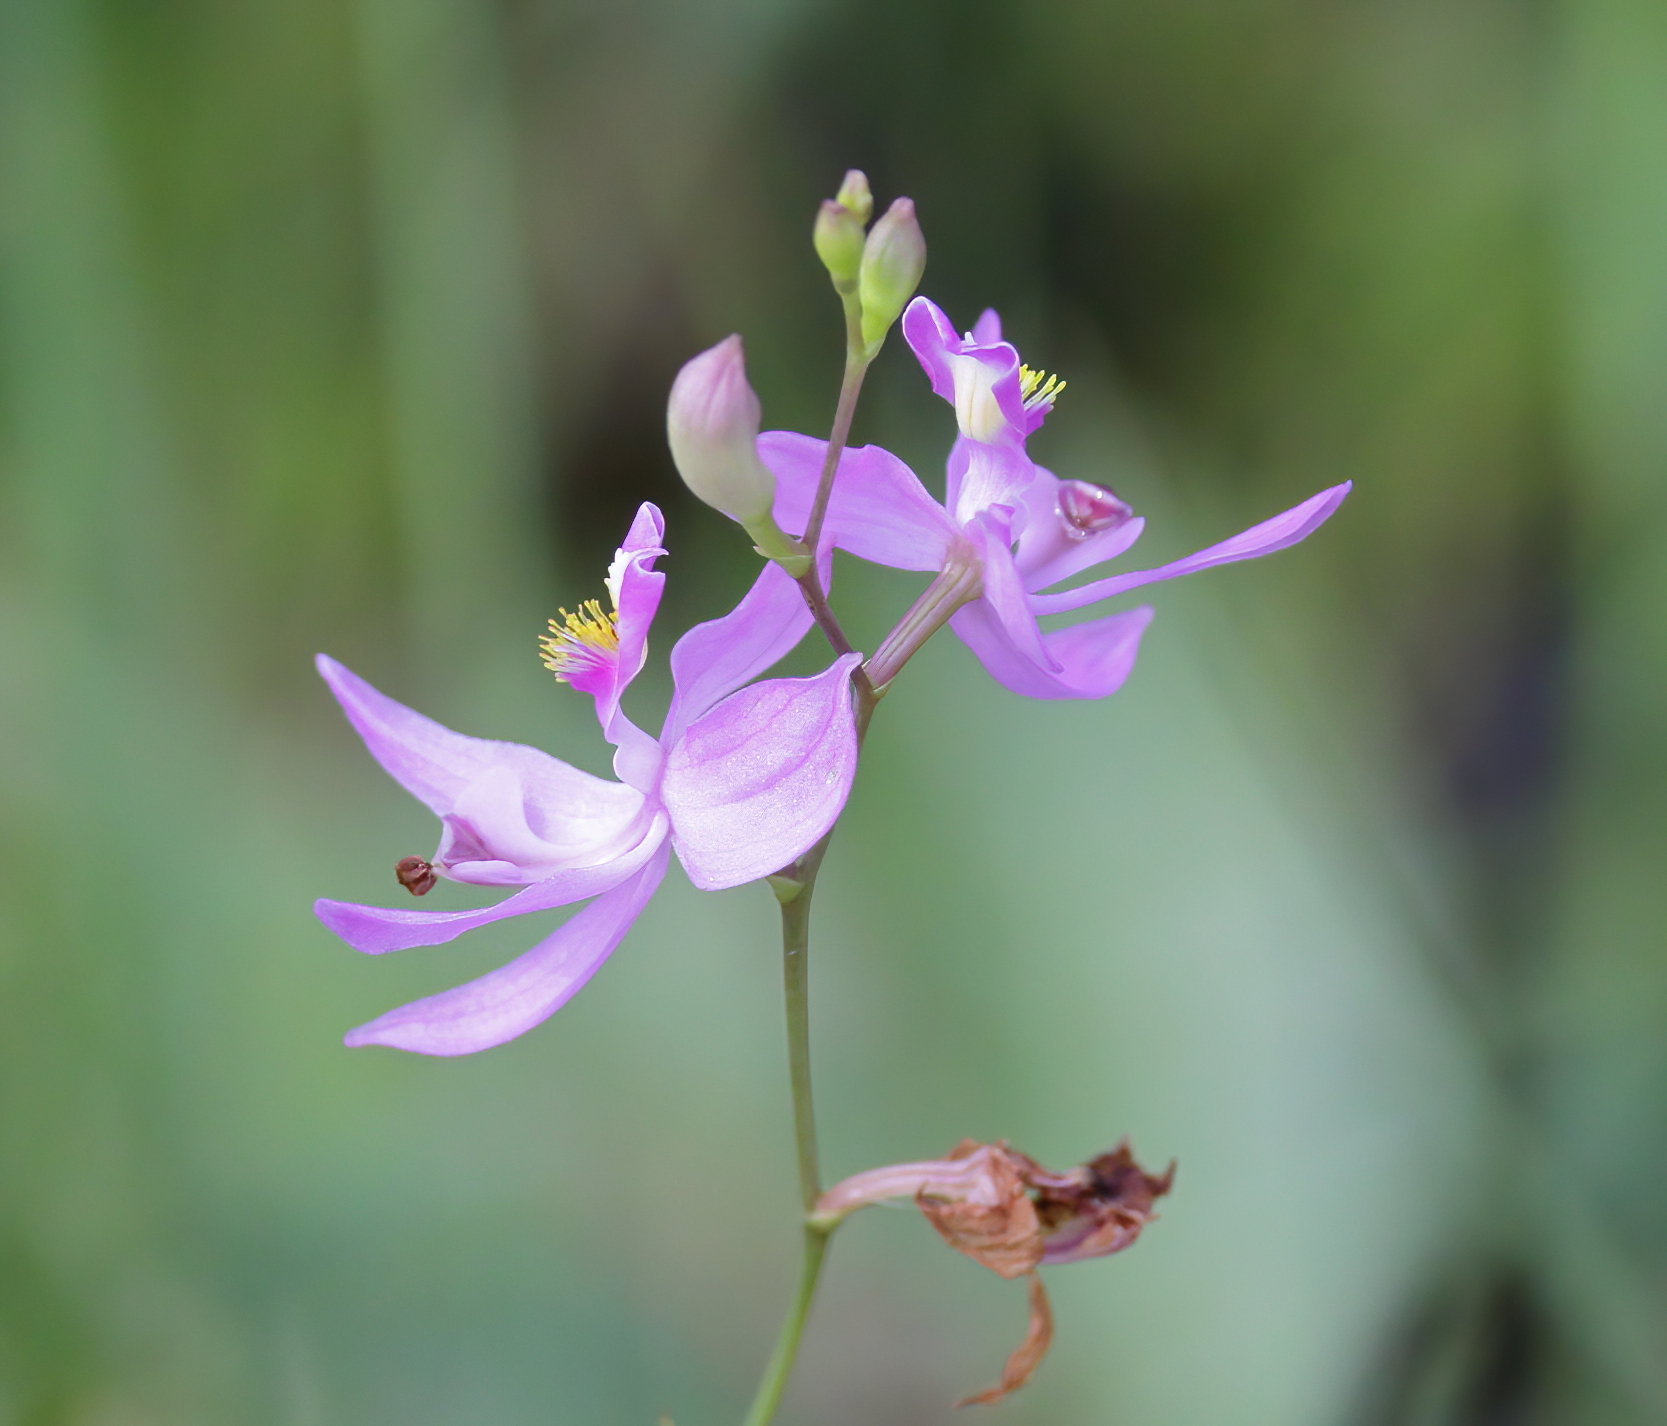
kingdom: Plantae
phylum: Tracheophyta
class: Liliopsida
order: Asparagales
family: Orchidaceae
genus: Calopogon
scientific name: Calopogon pallidus
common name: Pale grasspink
